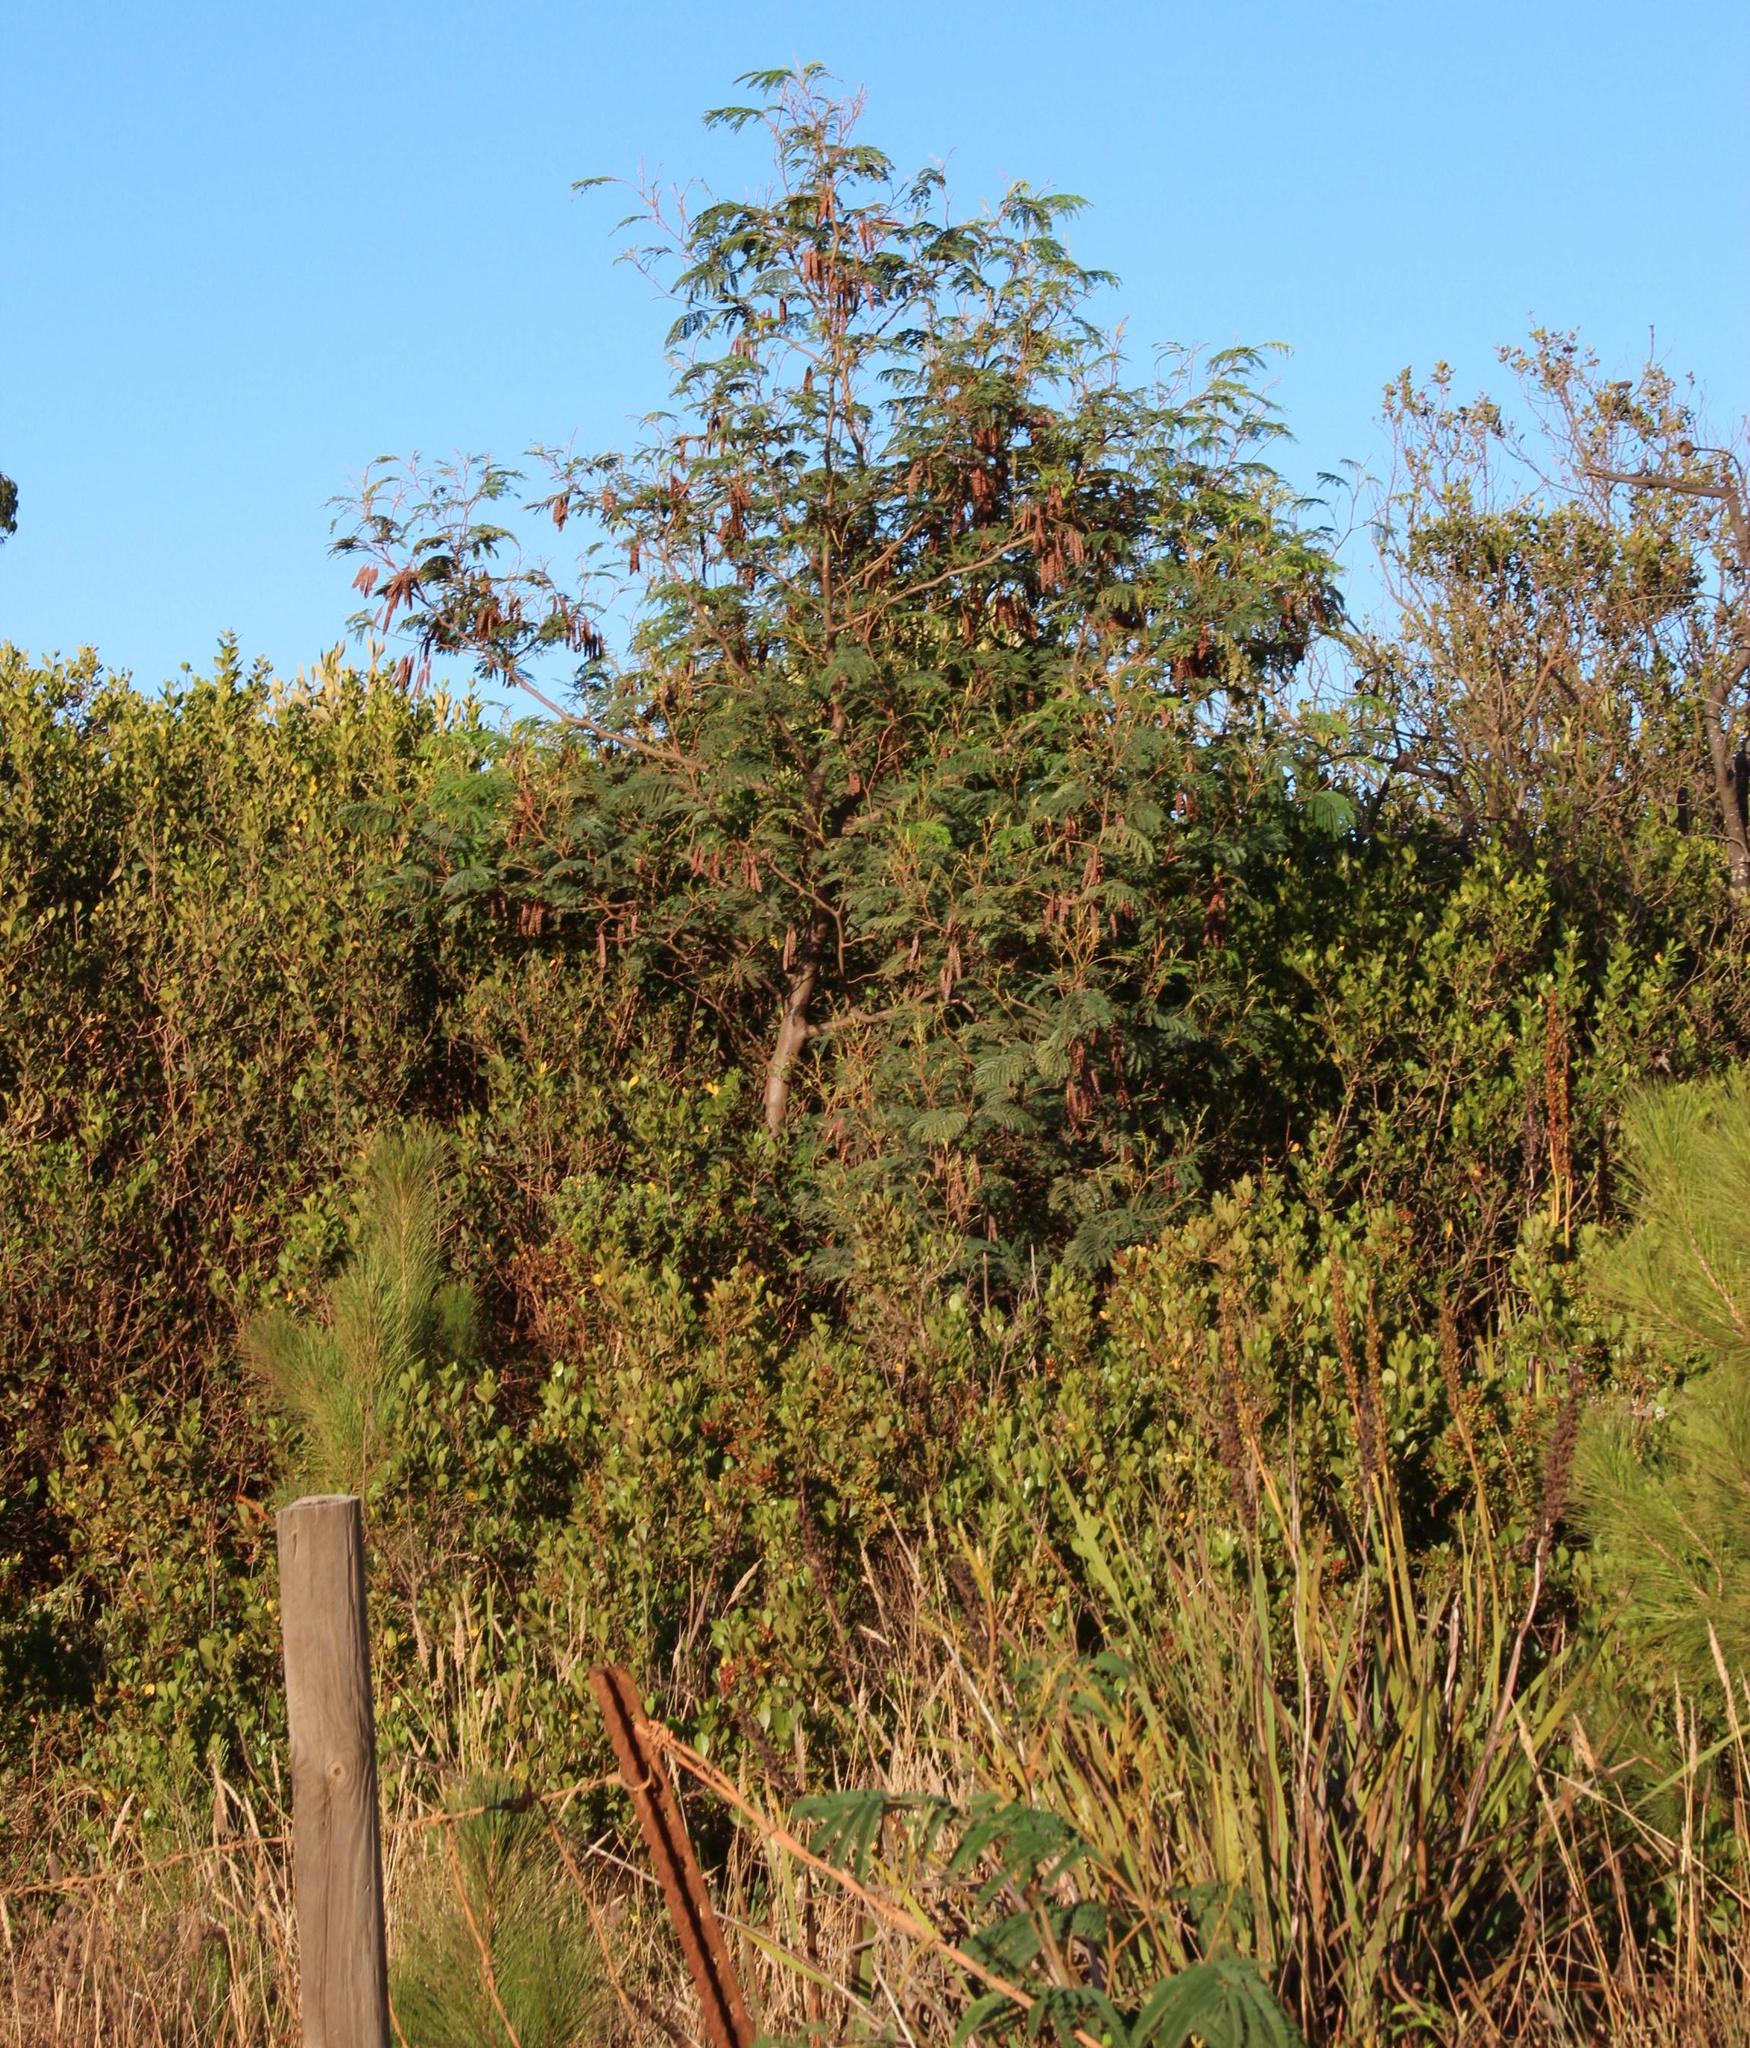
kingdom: Plantae
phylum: Tracheophyta
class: Magnoliopsida
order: Fabales
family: Fabaceae
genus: Paraserianthes
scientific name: Paraserianthes lophantha
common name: Plume albizia
